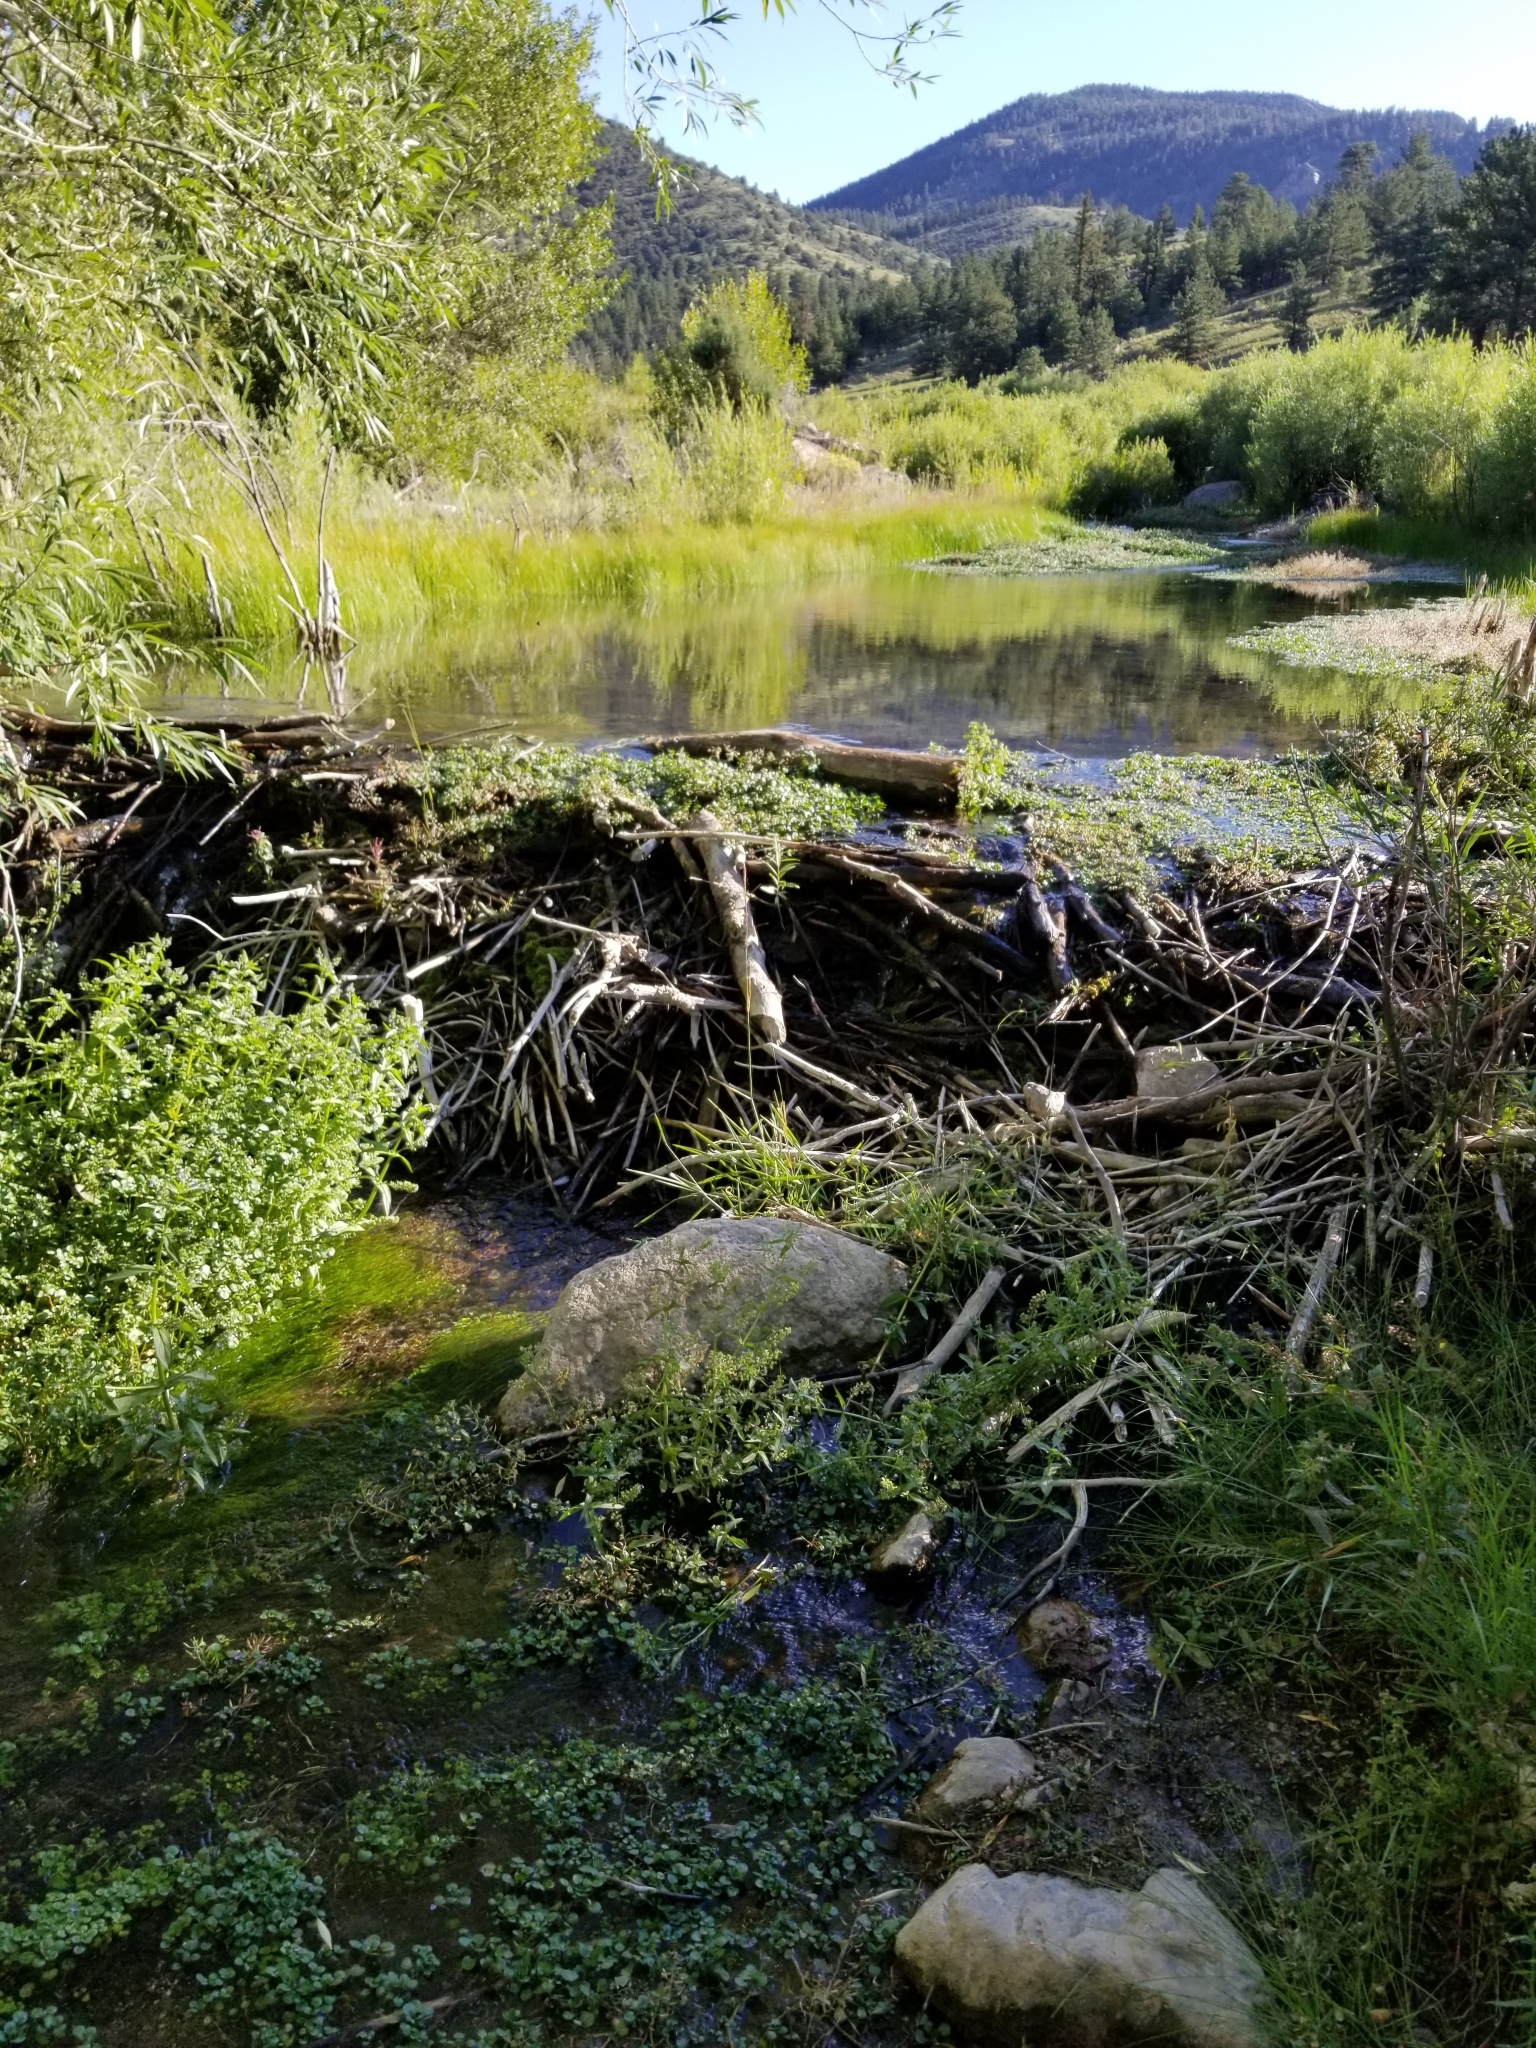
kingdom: Animalia
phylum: Chordata
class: Mammalia
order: Rodentia
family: Castoridae
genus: Castor
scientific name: Castor canadensis
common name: American beaver
